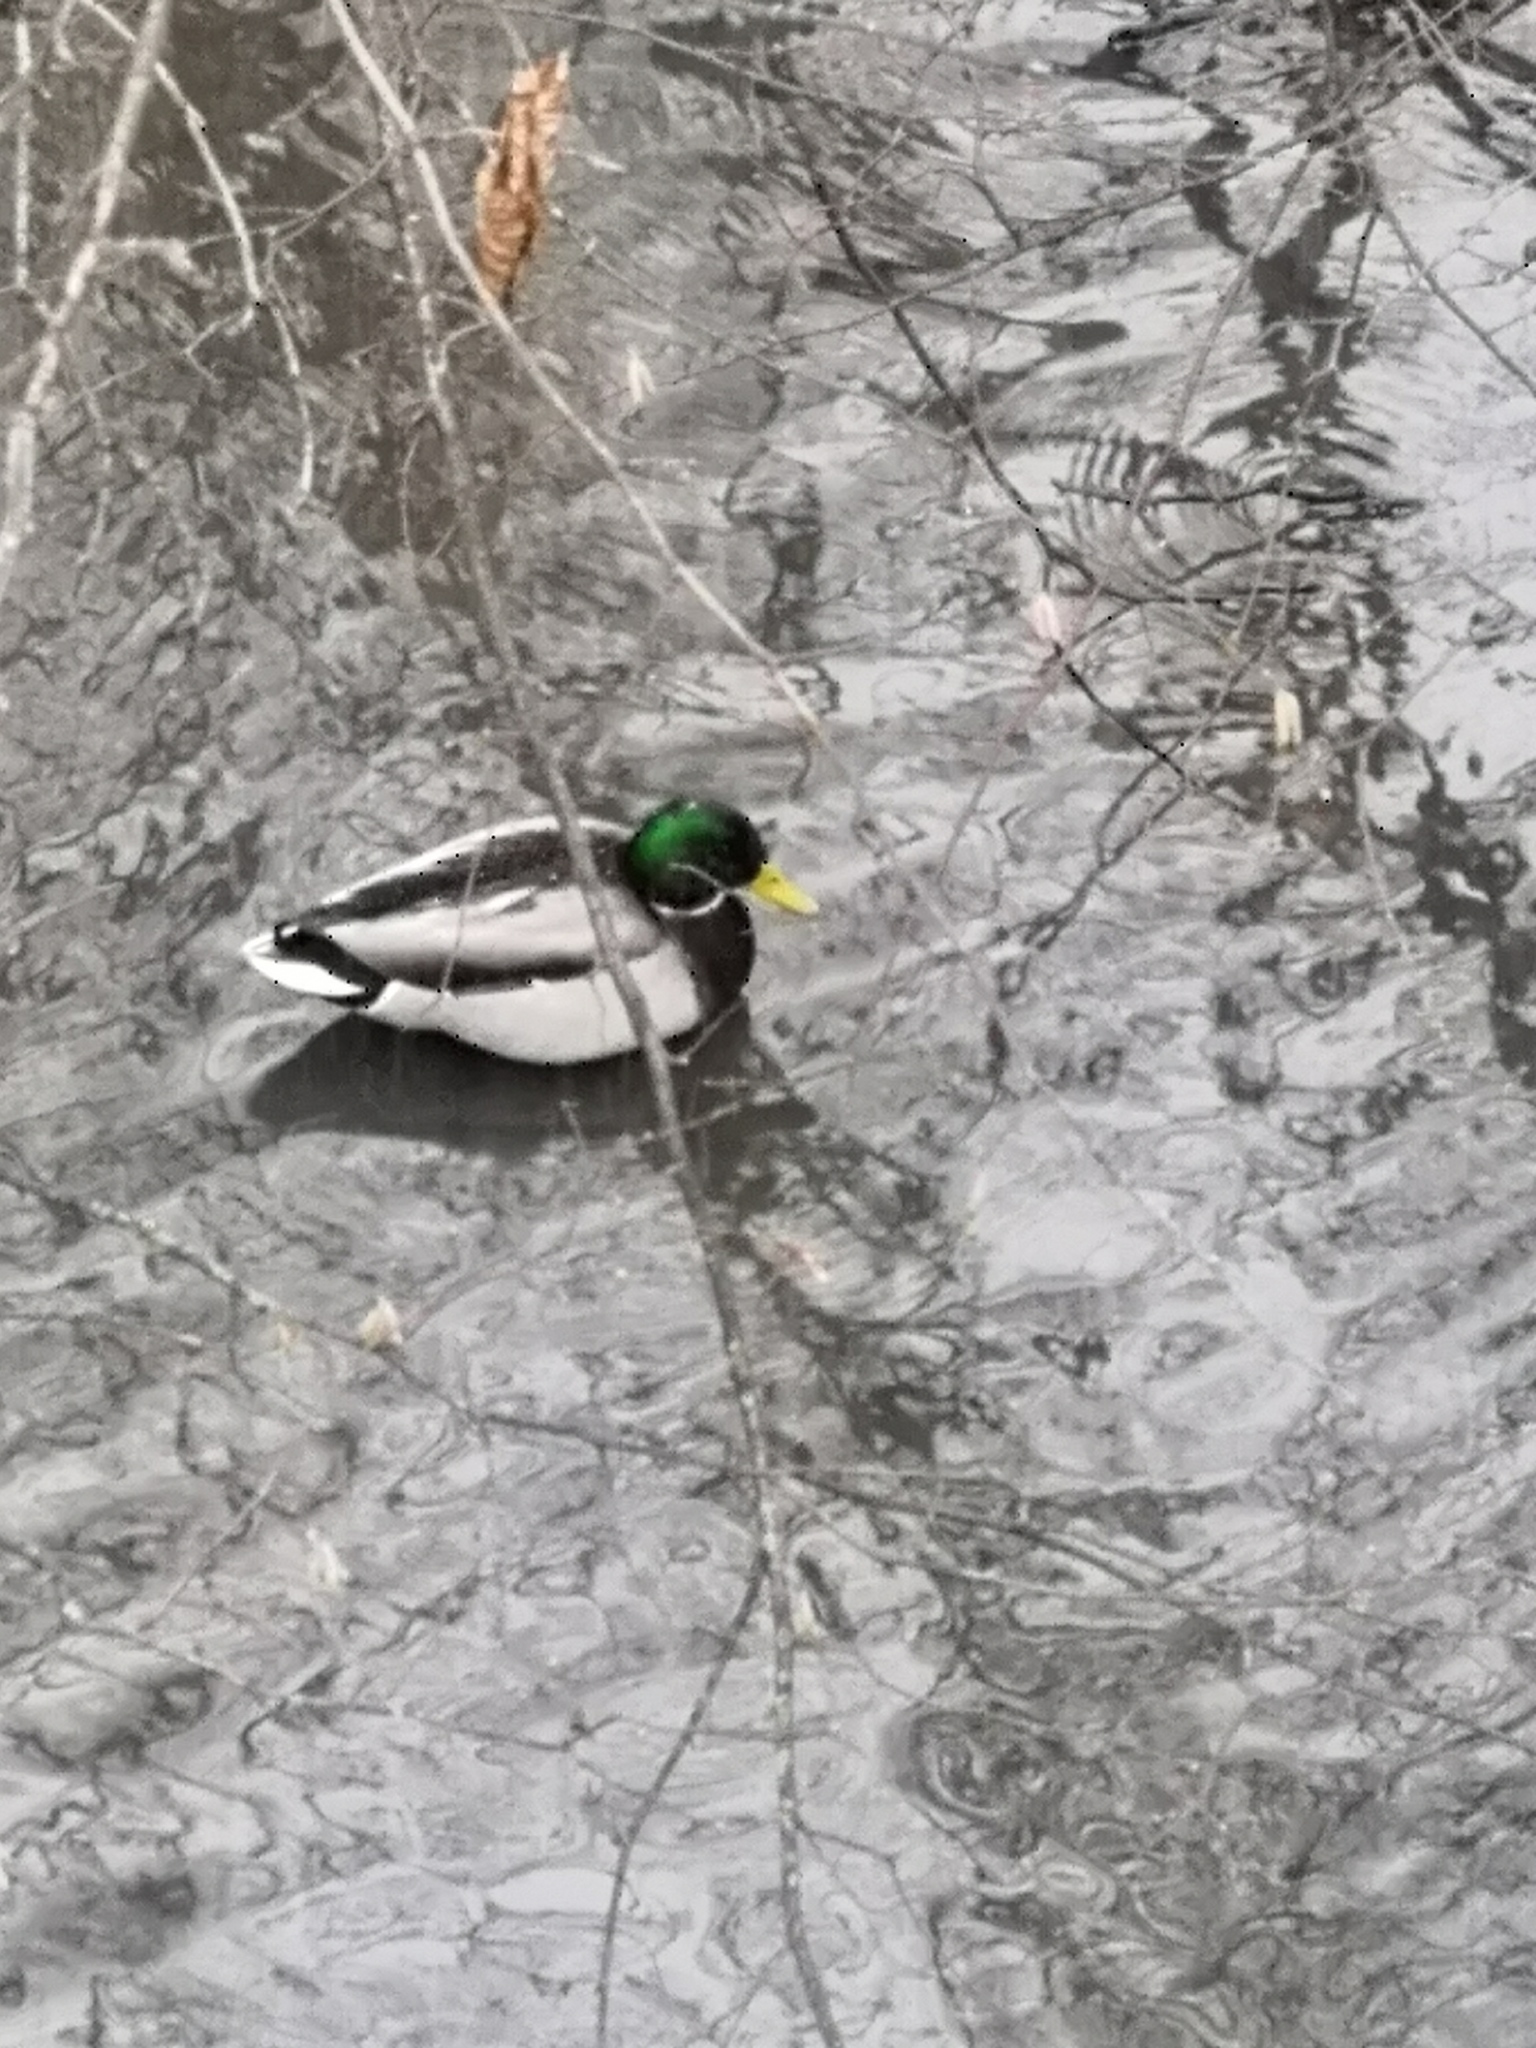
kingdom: Animalia
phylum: Chordata
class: Aves
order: Anseriformes
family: Anatidae
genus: Anas
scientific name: Anas platyrhynchos
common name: Mallard
